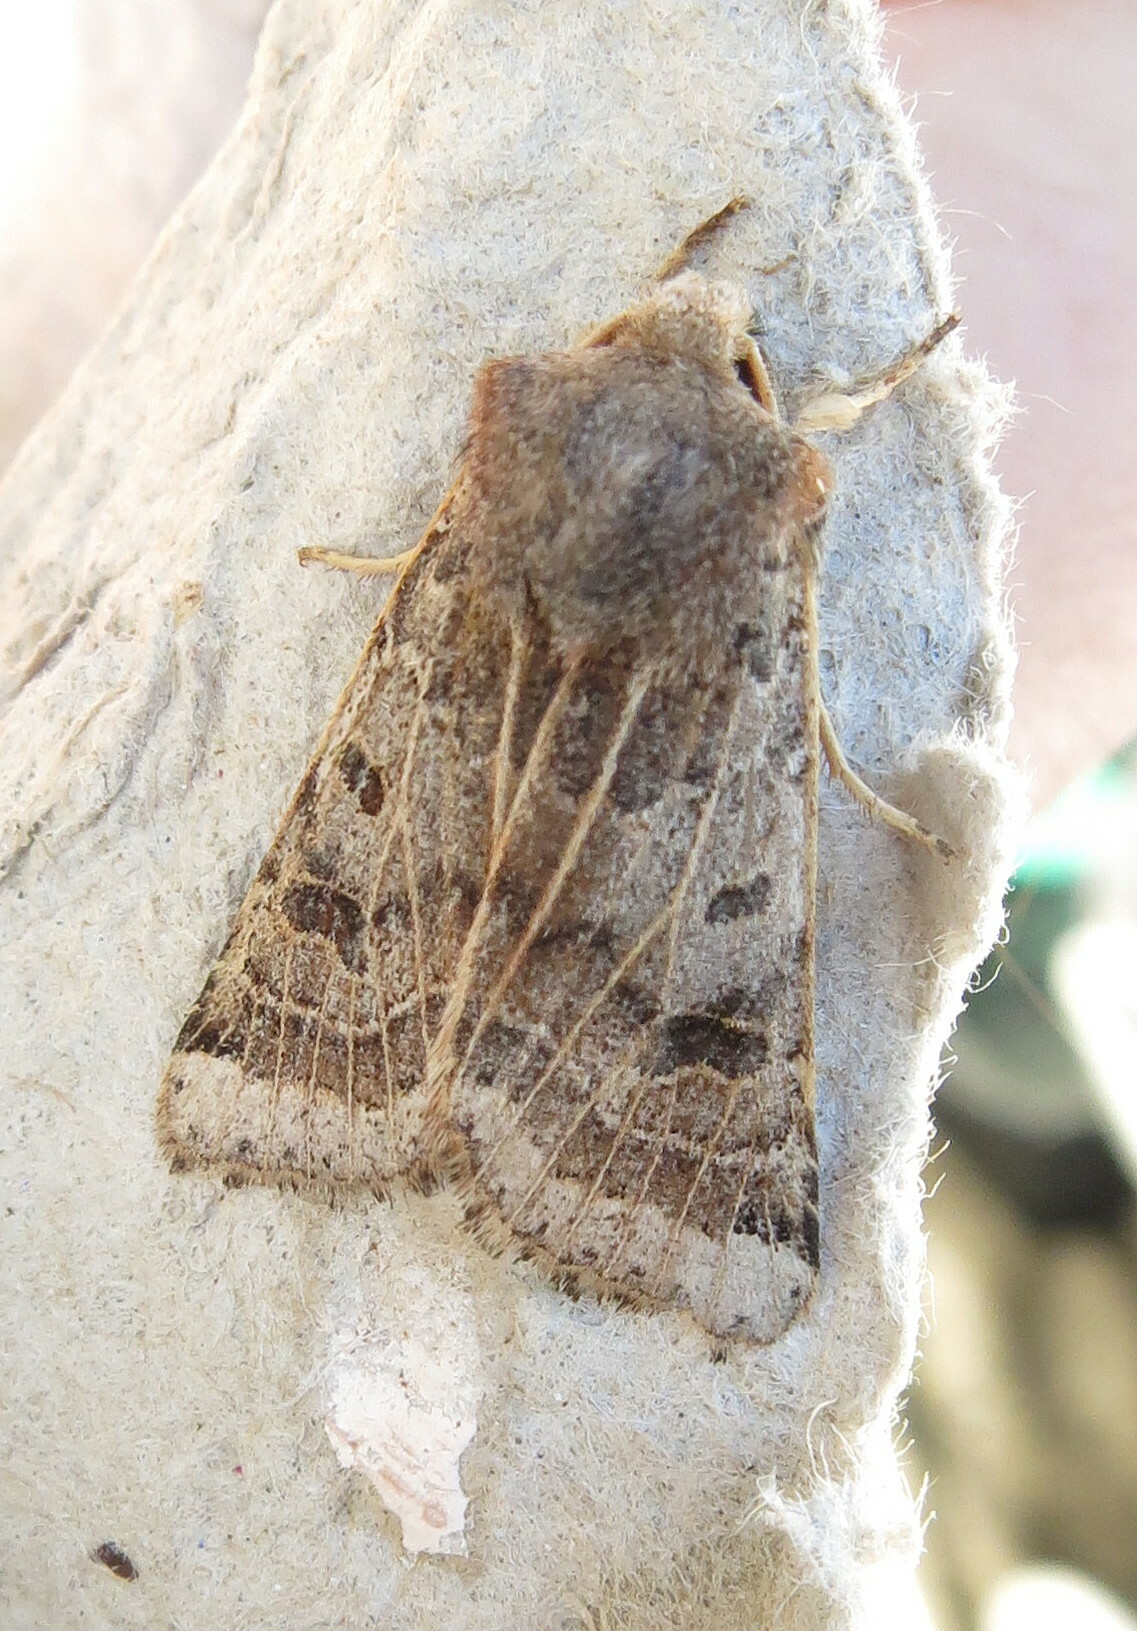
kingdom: Animalia
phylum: Arthropoda
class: Insecta
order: Lepidoptera
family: Noctuidae
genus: Agrochola
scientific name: Agrochola lunosa
